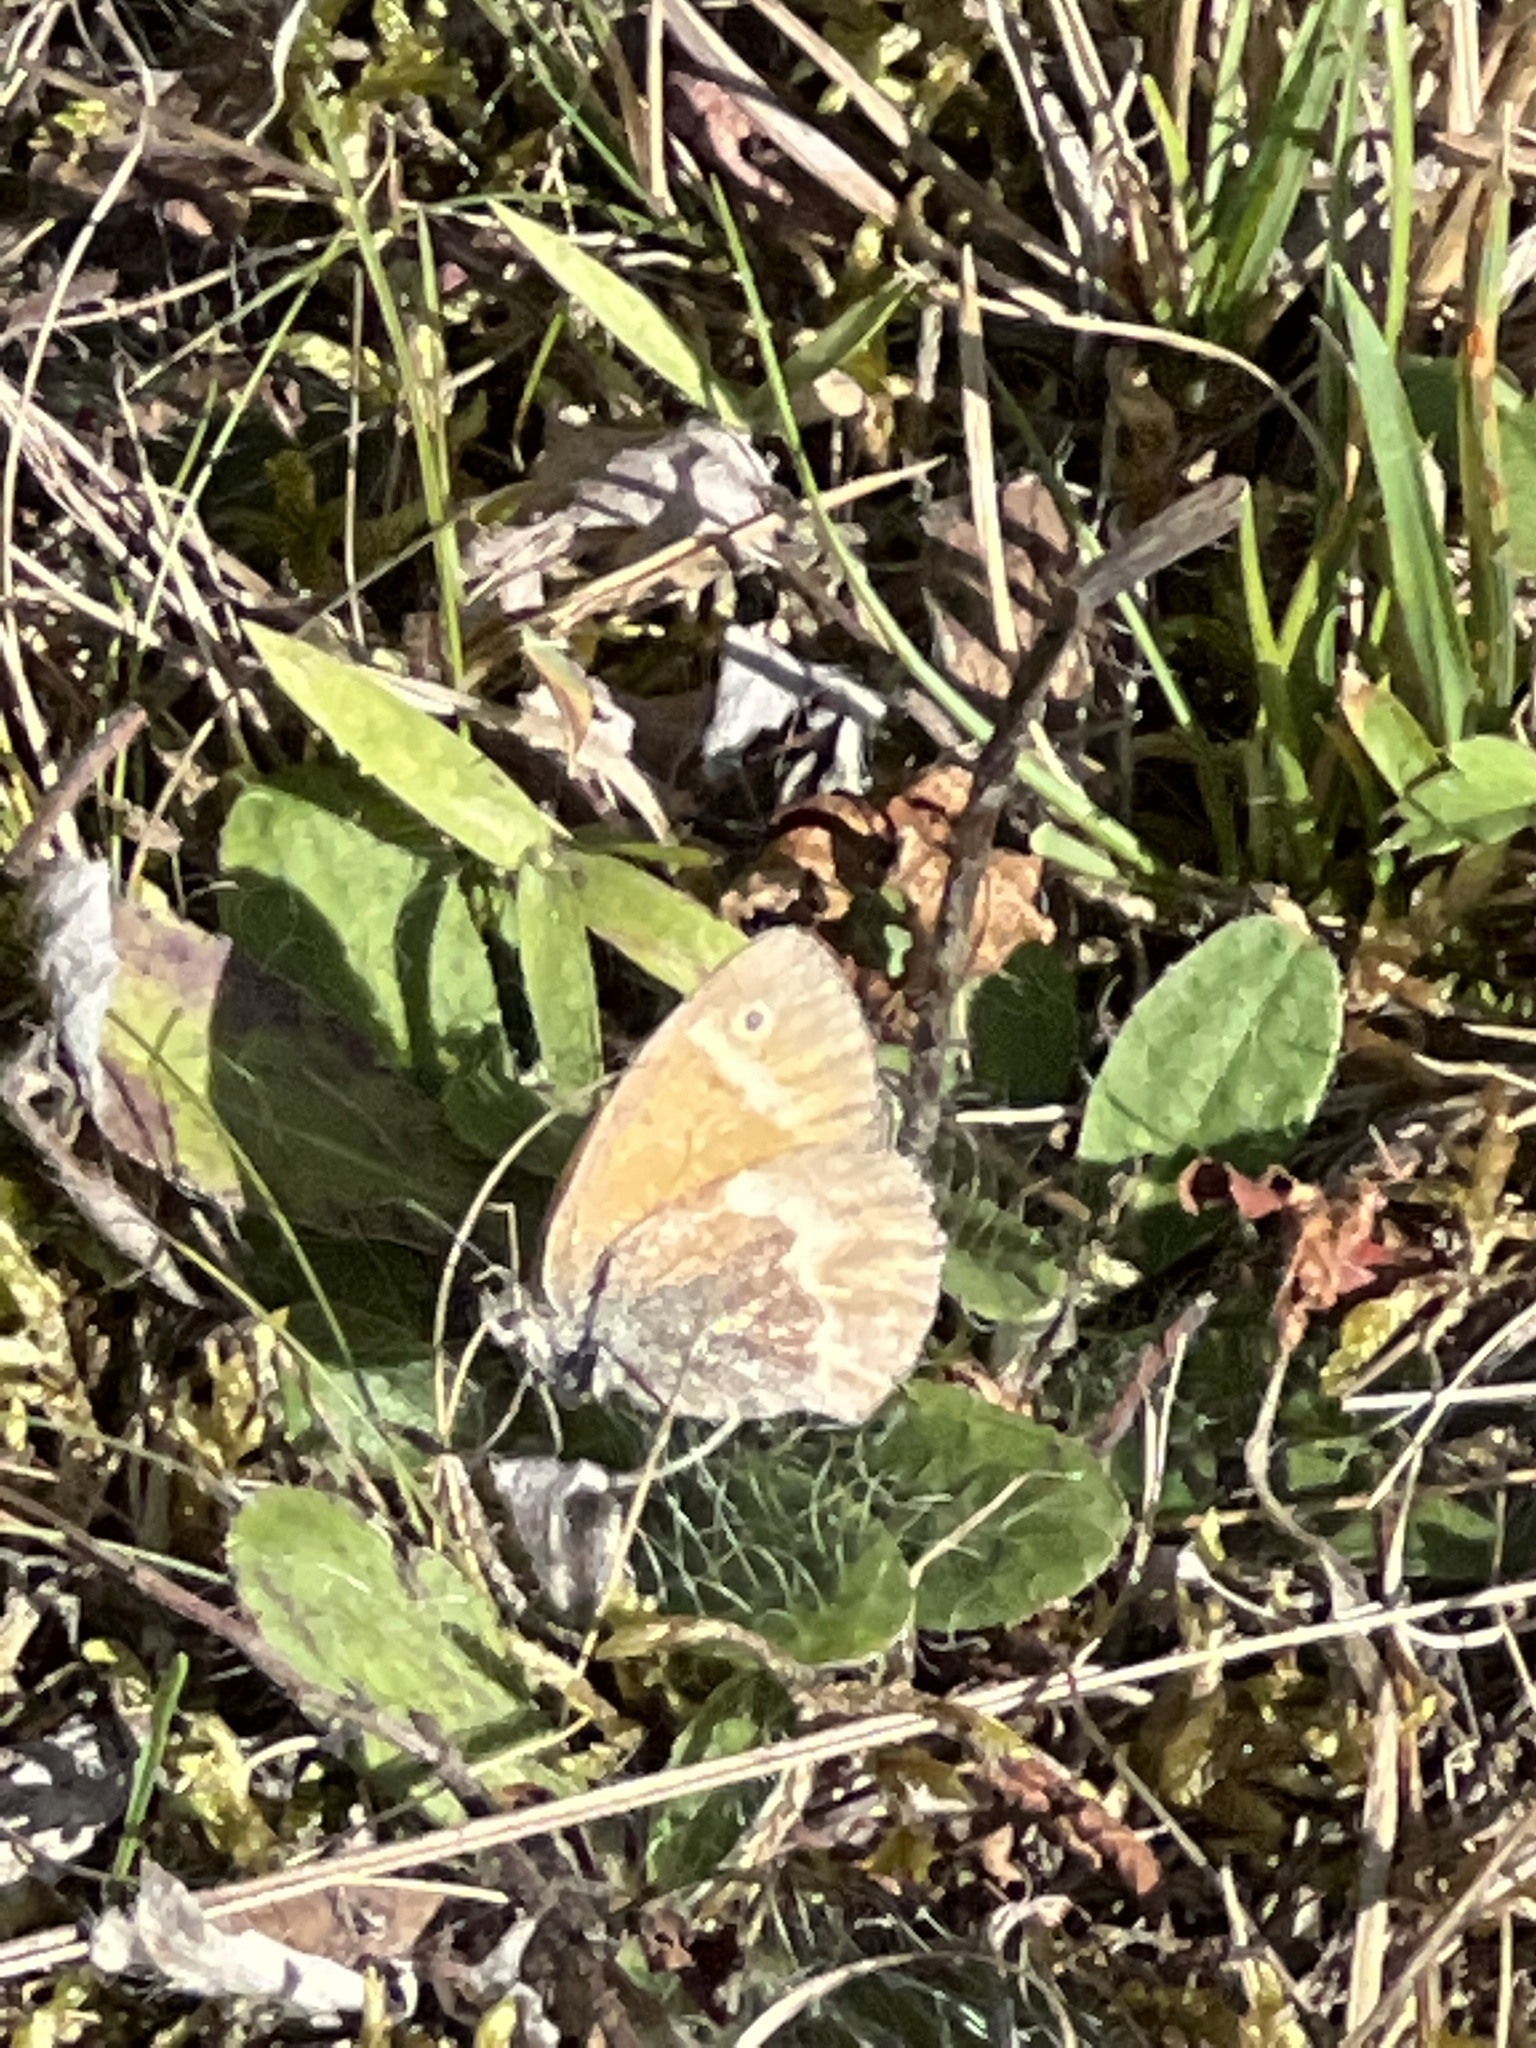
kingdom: Animalia
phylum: Arthropoda
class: Insecta
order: Lepidoptera
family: Nymphalidae
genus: Coenonympha
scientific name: Coenonympha california
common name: Common ringlet
